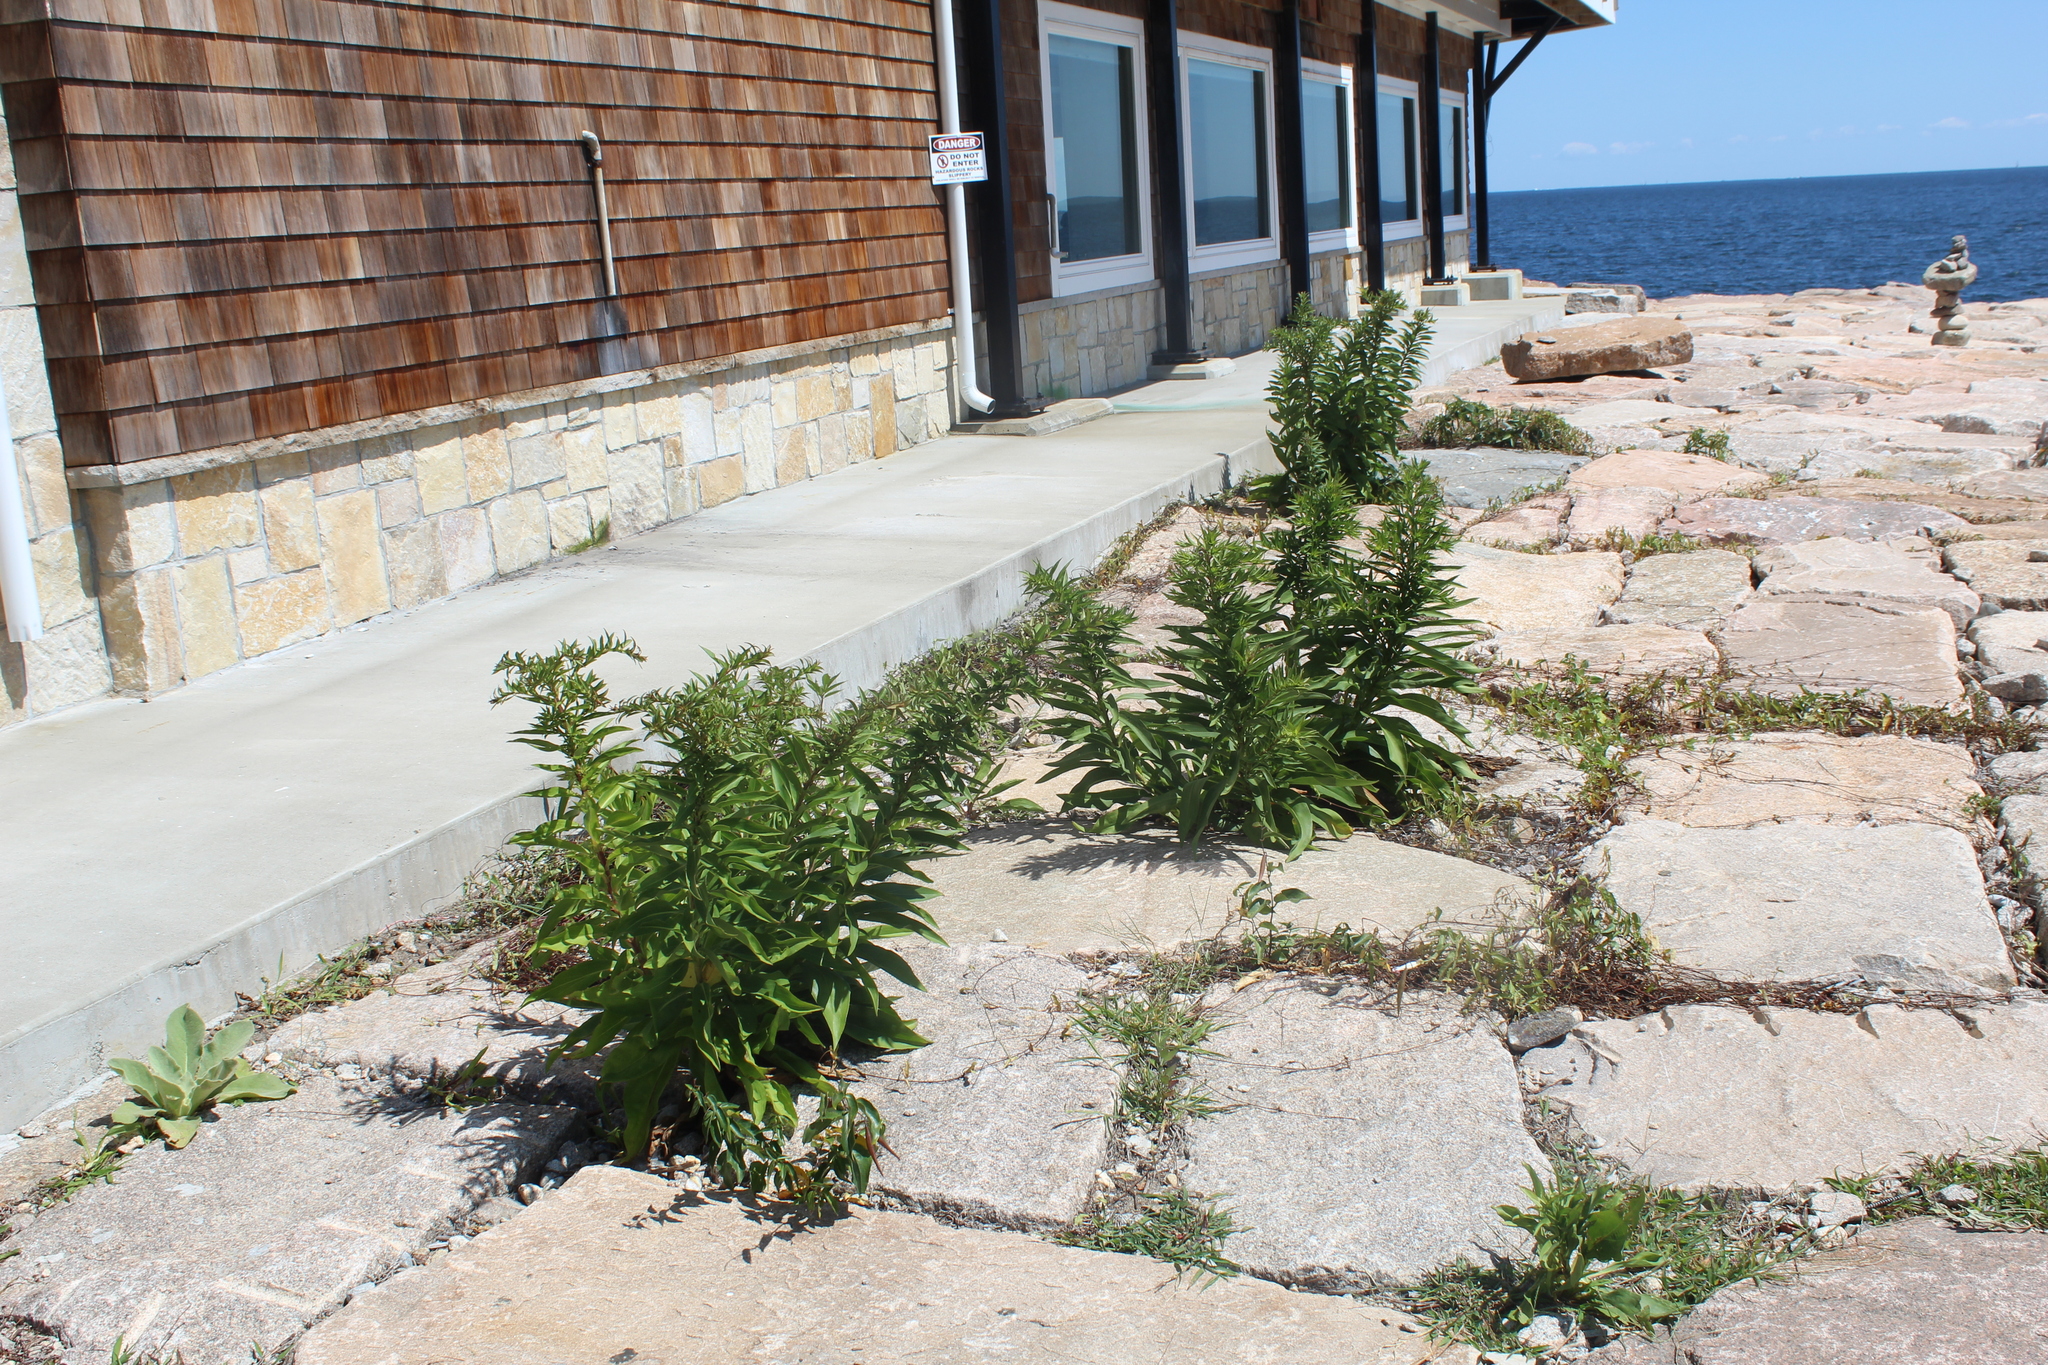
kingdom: Plantae
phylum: Tracheophyta
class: Magnoliopsida
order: Asterales
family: Asteraceae
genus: Solidago
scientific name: Solidago sempervirens
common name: Salt-marsh goldenrod
